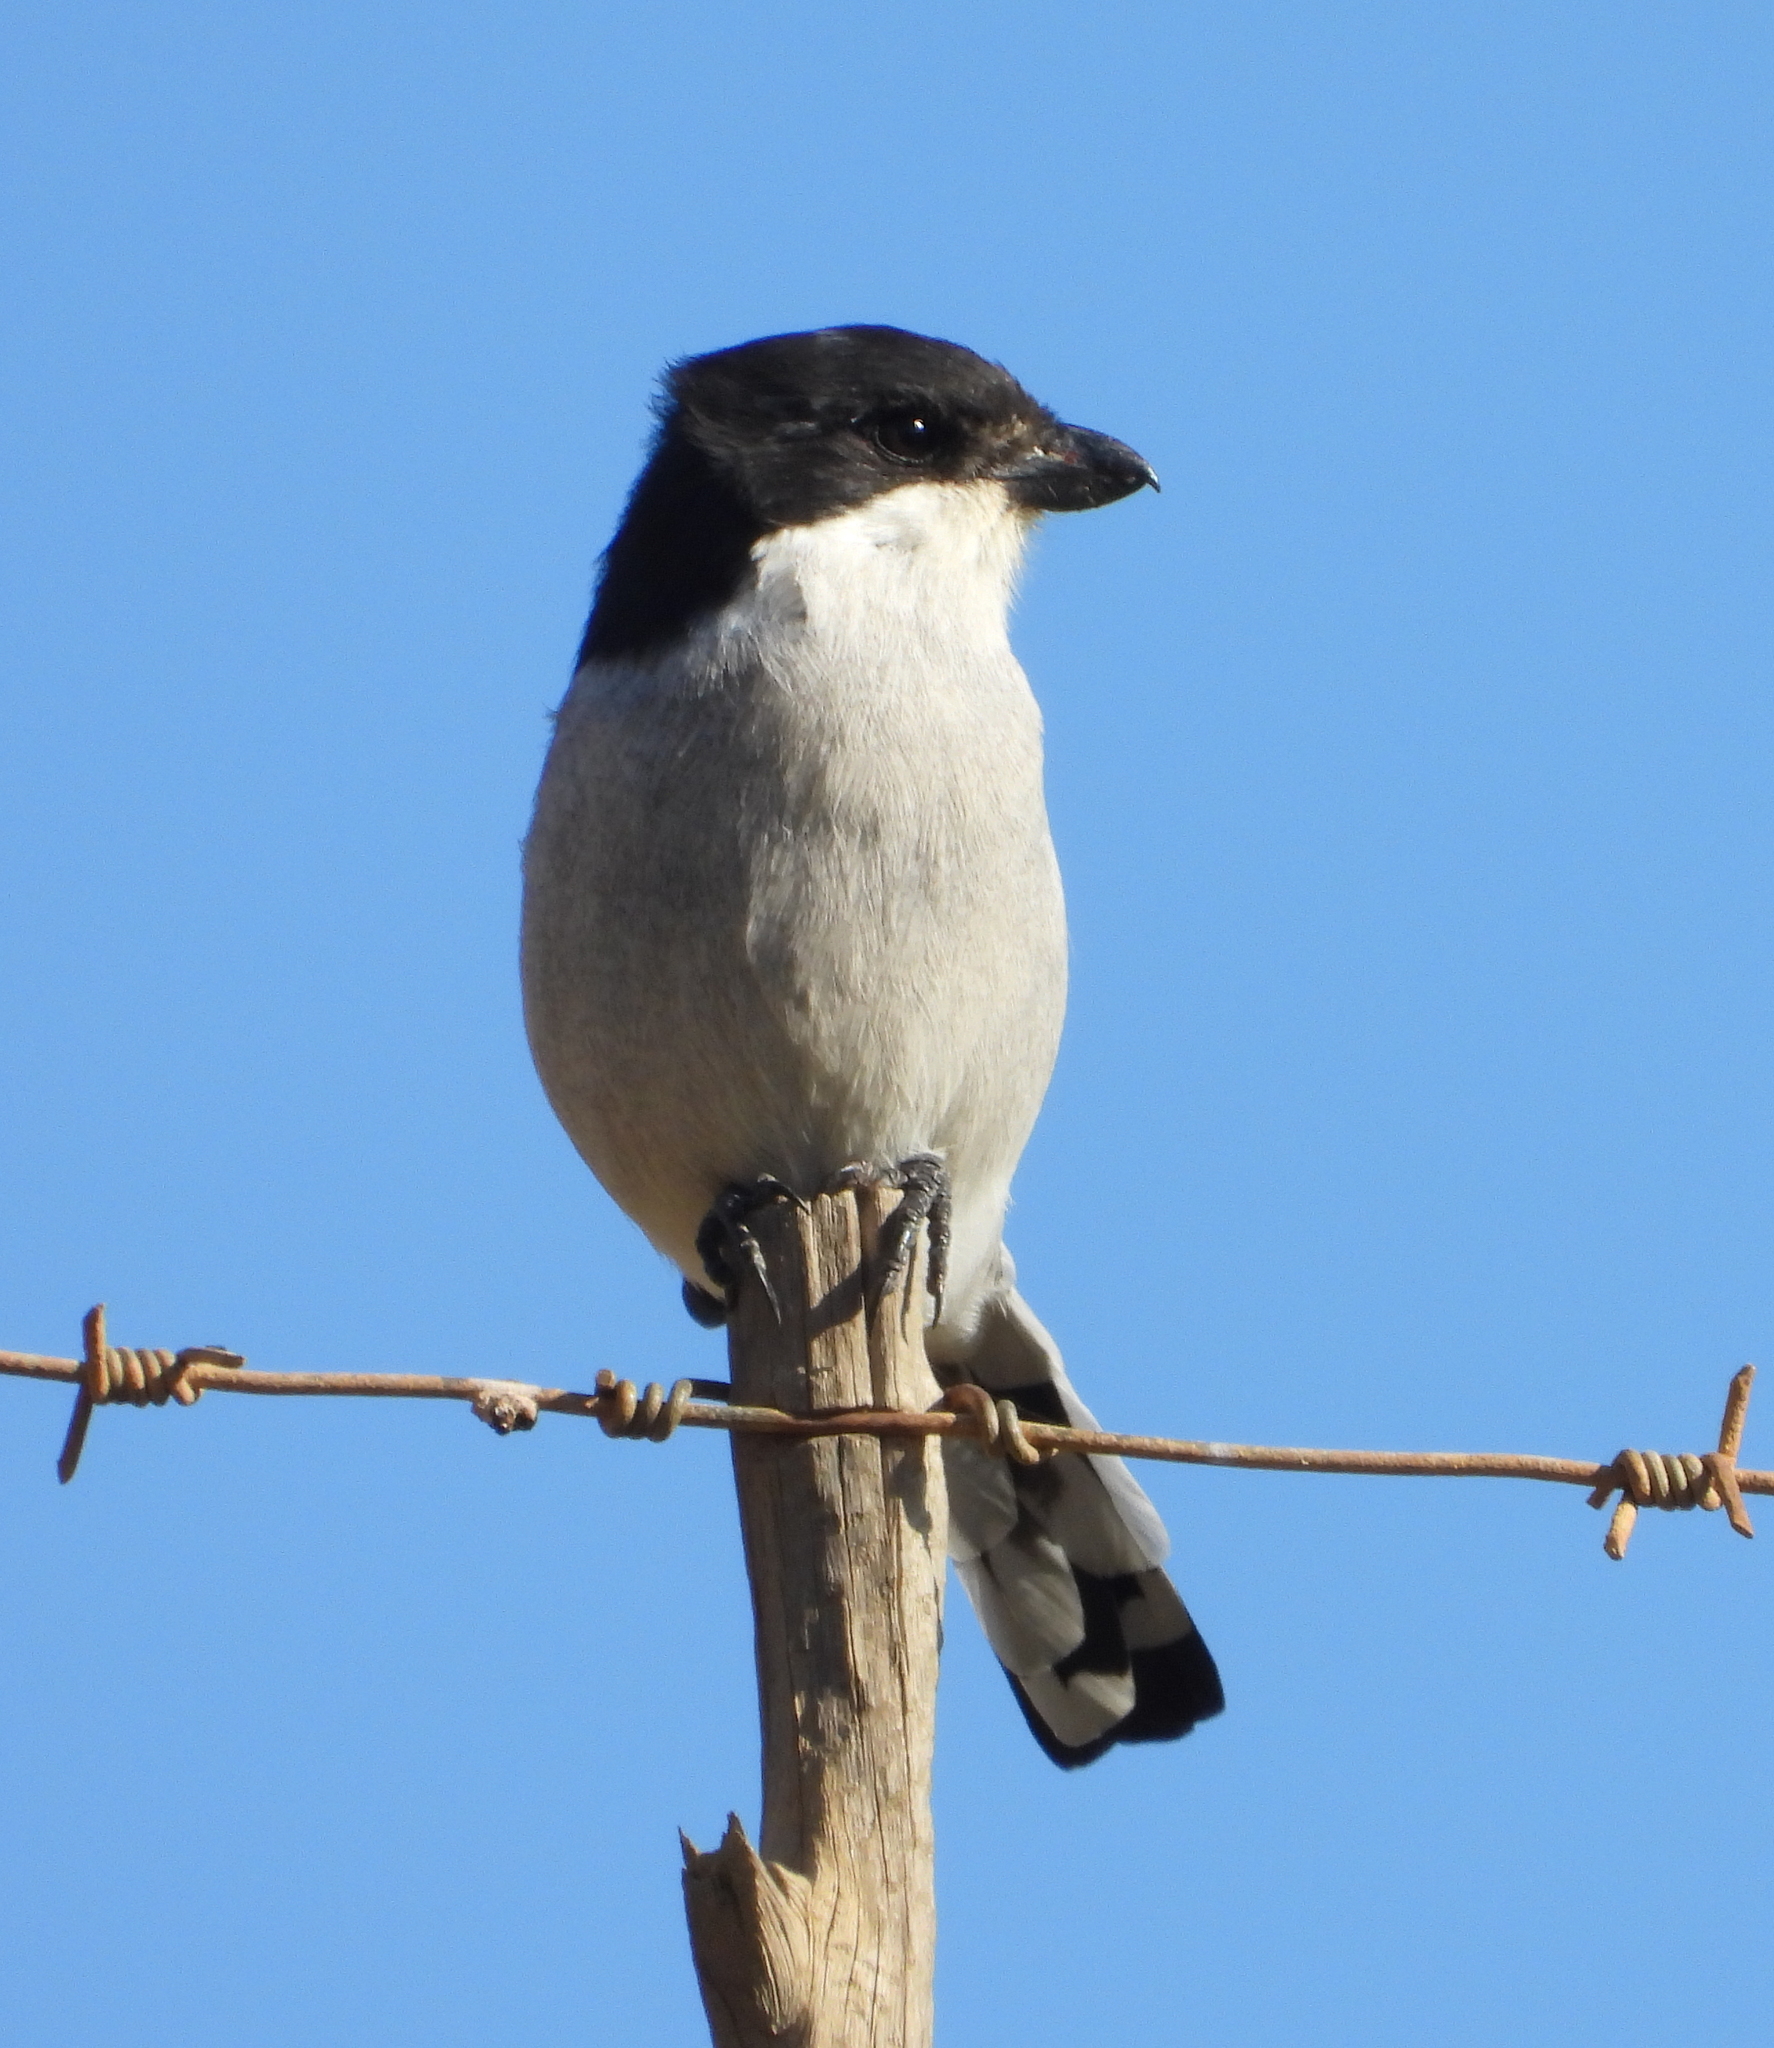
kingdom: Animalia
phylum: Chordata
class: Aves
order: Passeriformes
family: Laniidae
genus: Lanius
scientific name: Lanius collaris
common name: Southern fiscal
